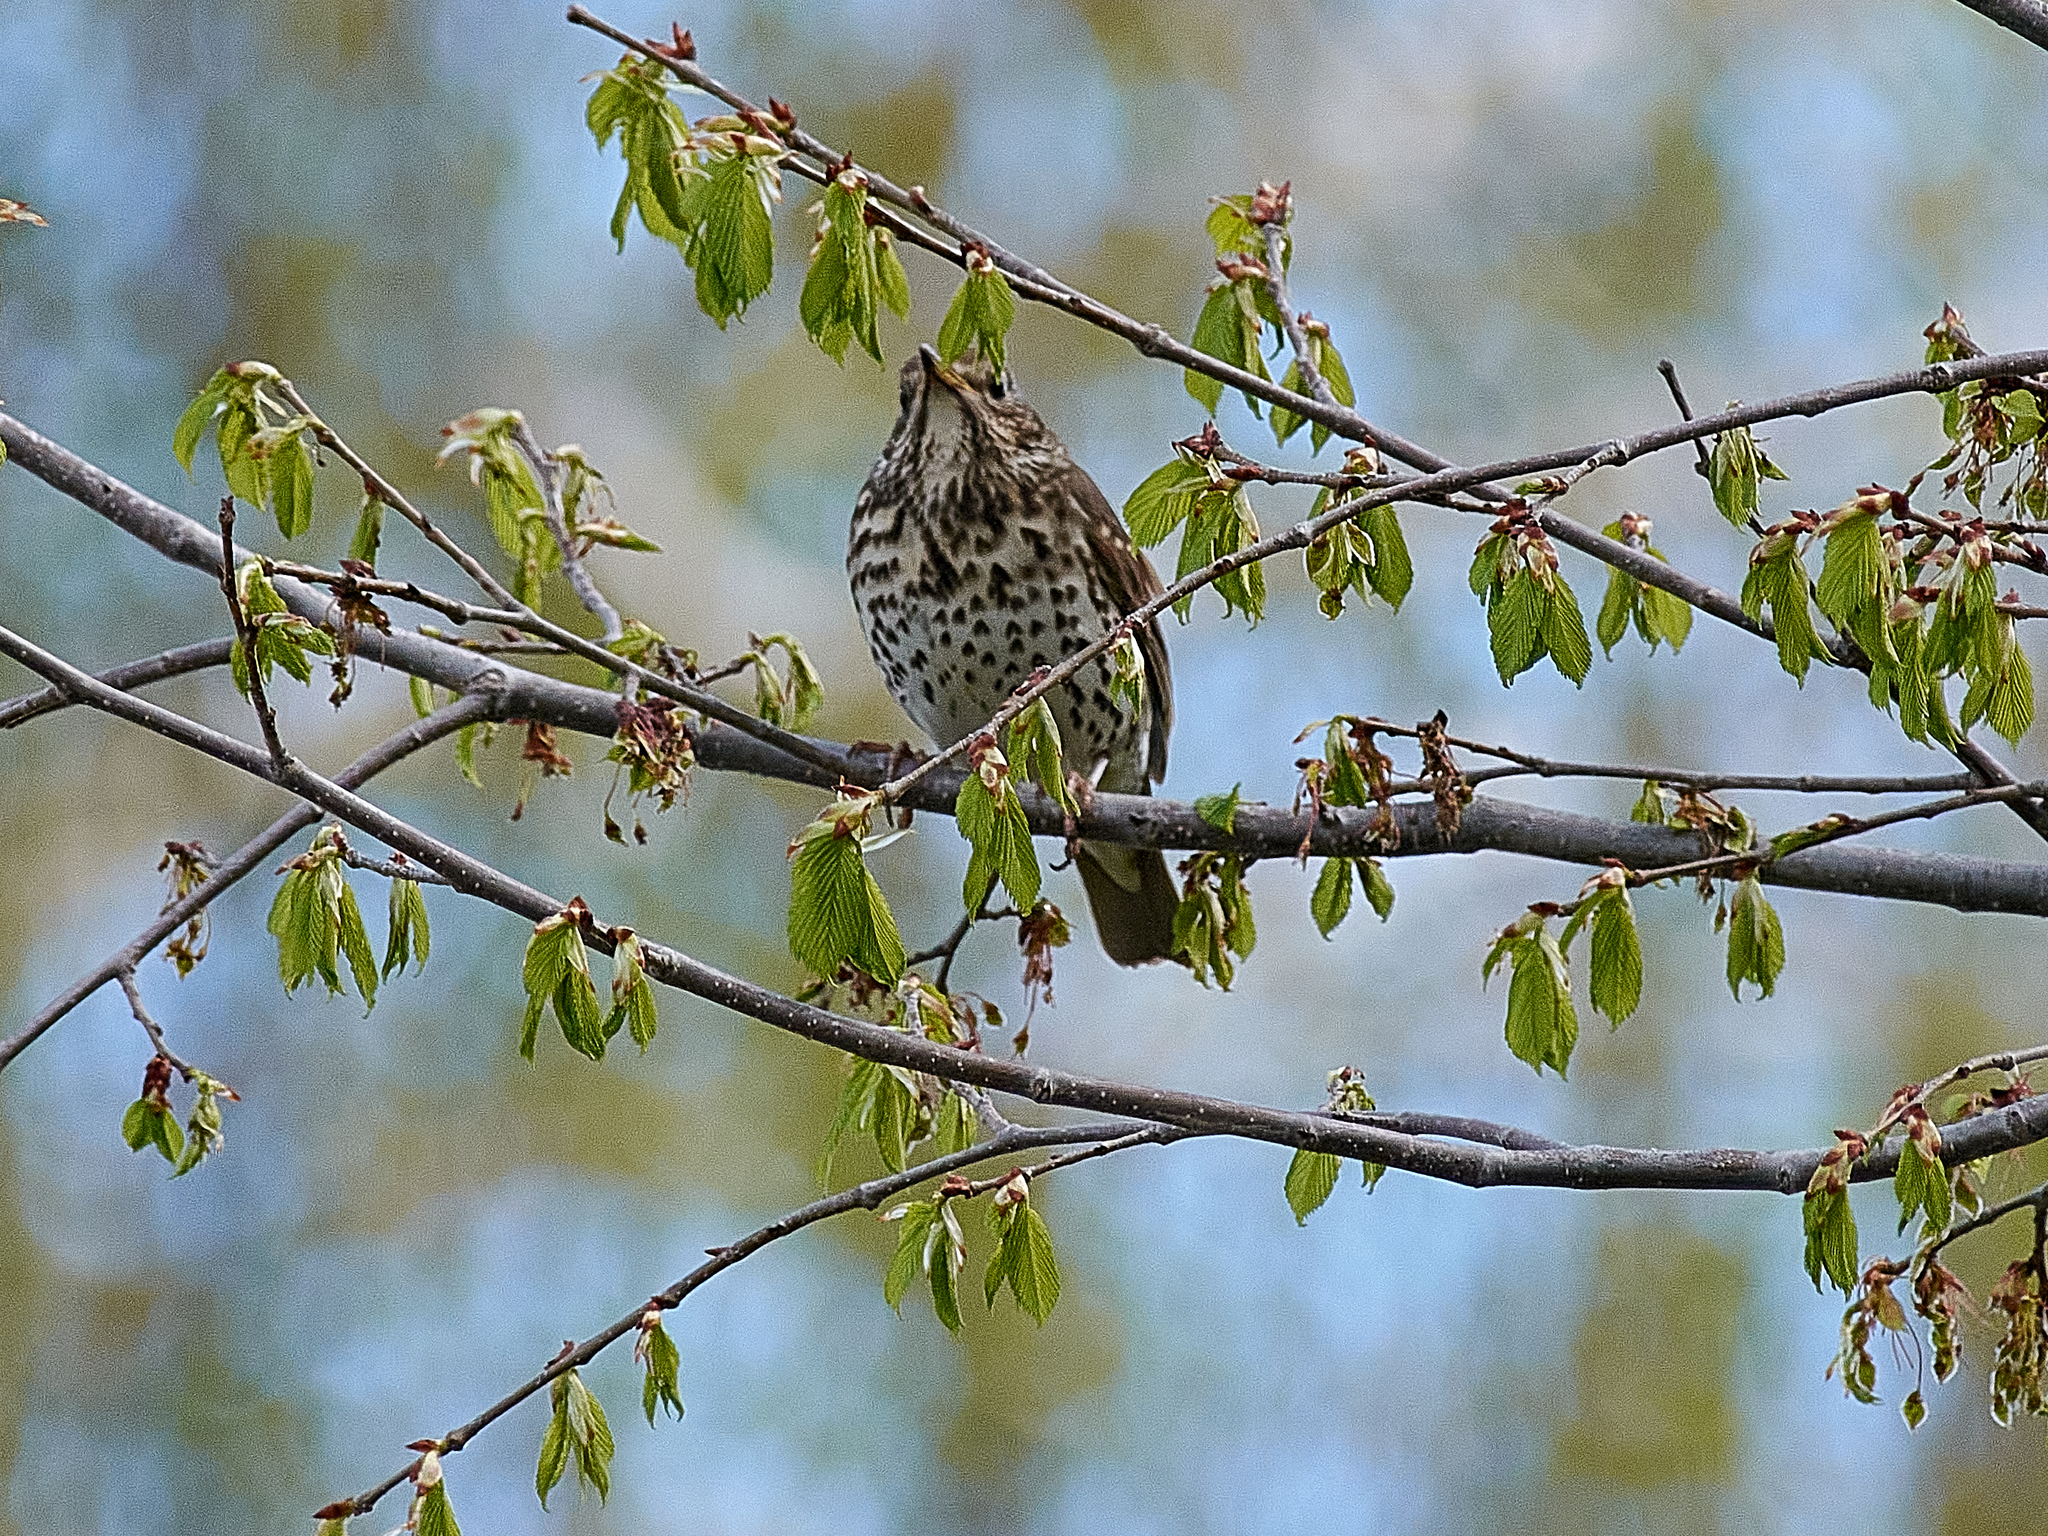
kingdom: Animalia
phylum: Chordata
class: Aves
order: Passeriformes
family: Turdidae
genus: Turdus
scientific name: Turdus philomelos
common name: Song thrush
